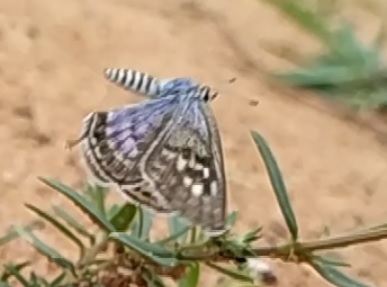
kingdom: Animalia
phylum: Arthropoda
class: Insecta
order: Lepidoptera
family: Lycaenidae
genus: Tarucus
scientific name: Tarucus balkanica
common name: Little tiger blue
